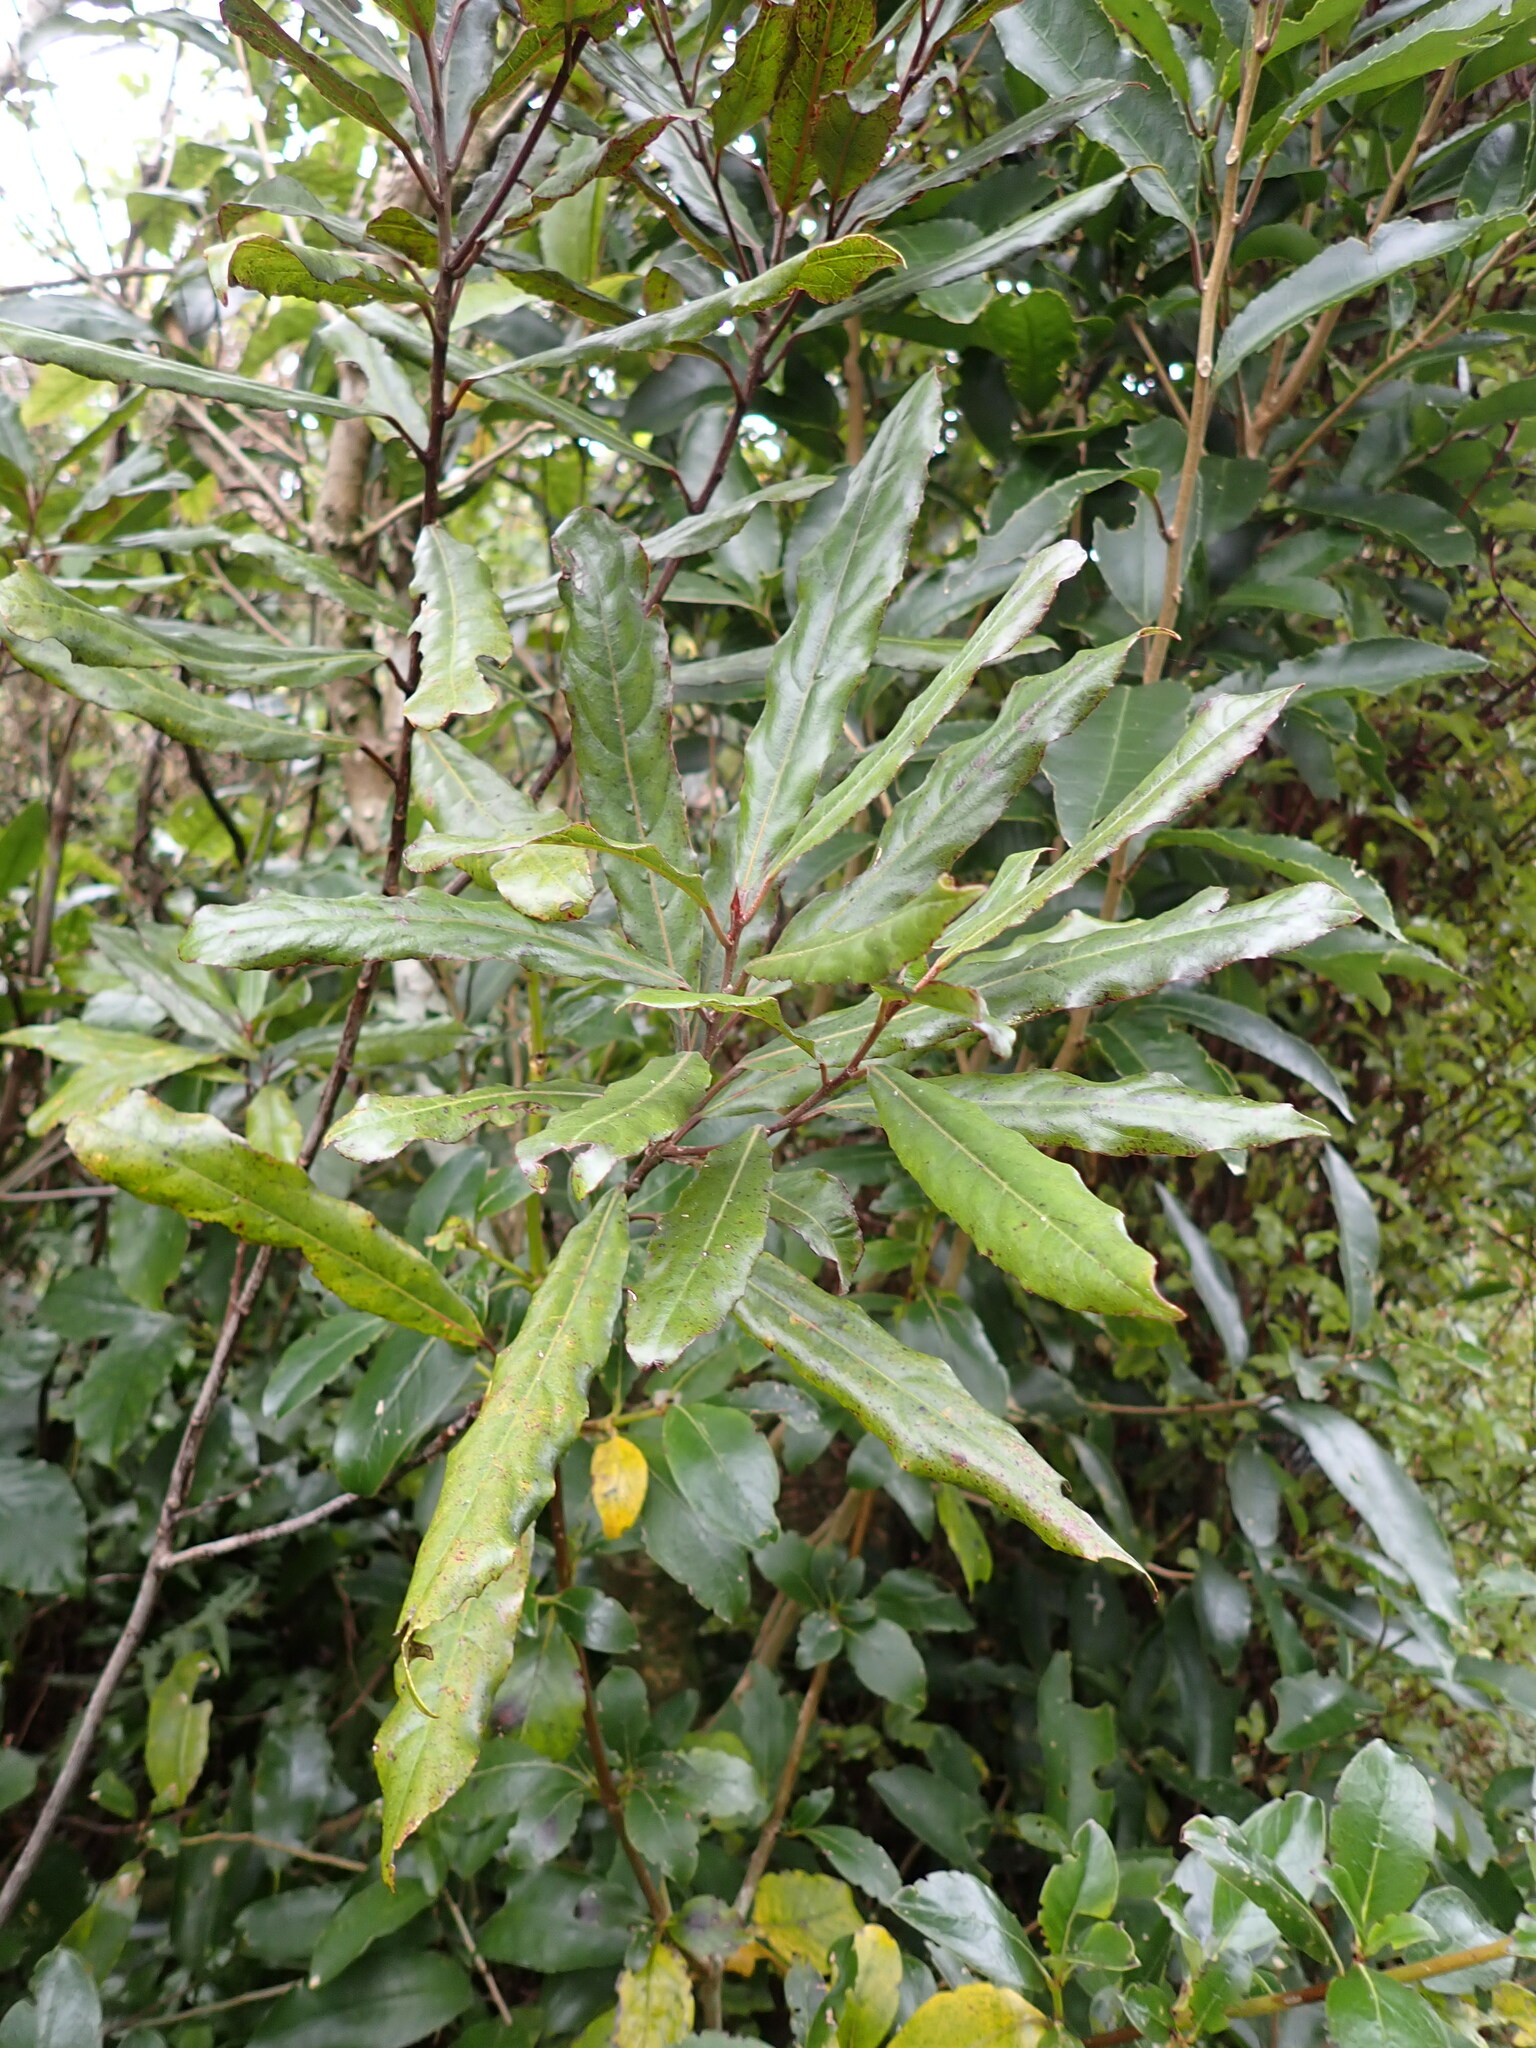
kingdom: Plantae
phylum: Tracheophyta
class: Magnoliopsida
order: Oxalidales
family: Elaeocarpaceae
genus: Elaeocarpus
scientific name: Elaeocarpus dentatus
